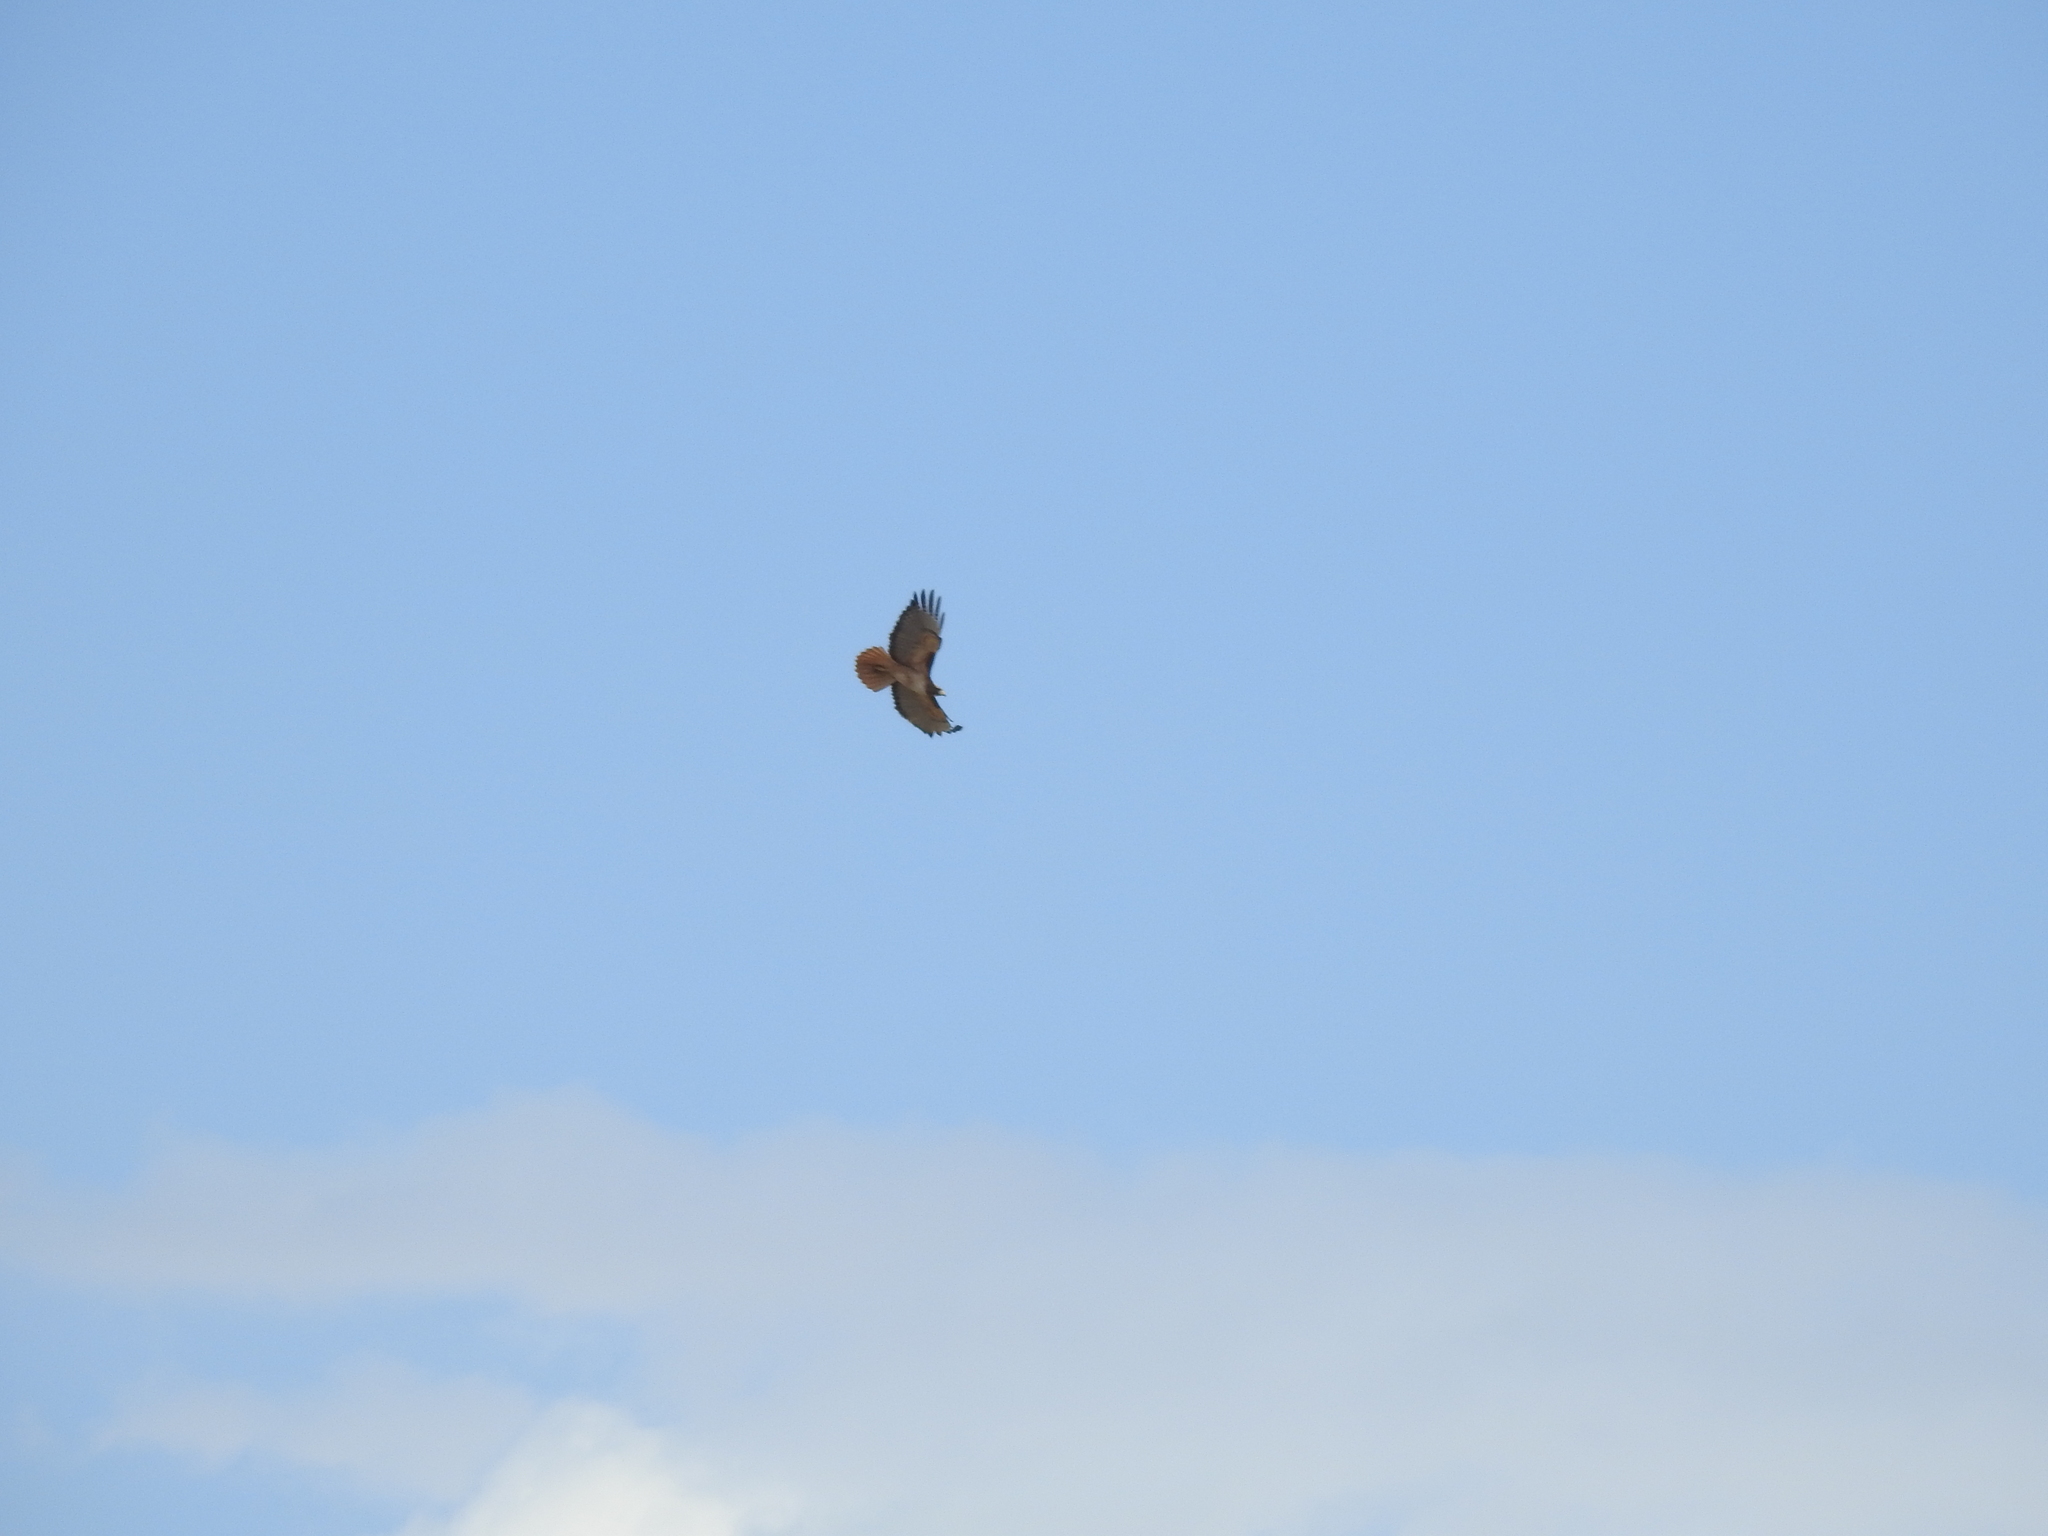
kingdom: Animalia
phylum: Chordata
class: Aves
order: Accipitriformes
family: Accipitridae
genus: Buteo
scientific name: Buteo jamaicensis
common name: Red-tailed hawk
